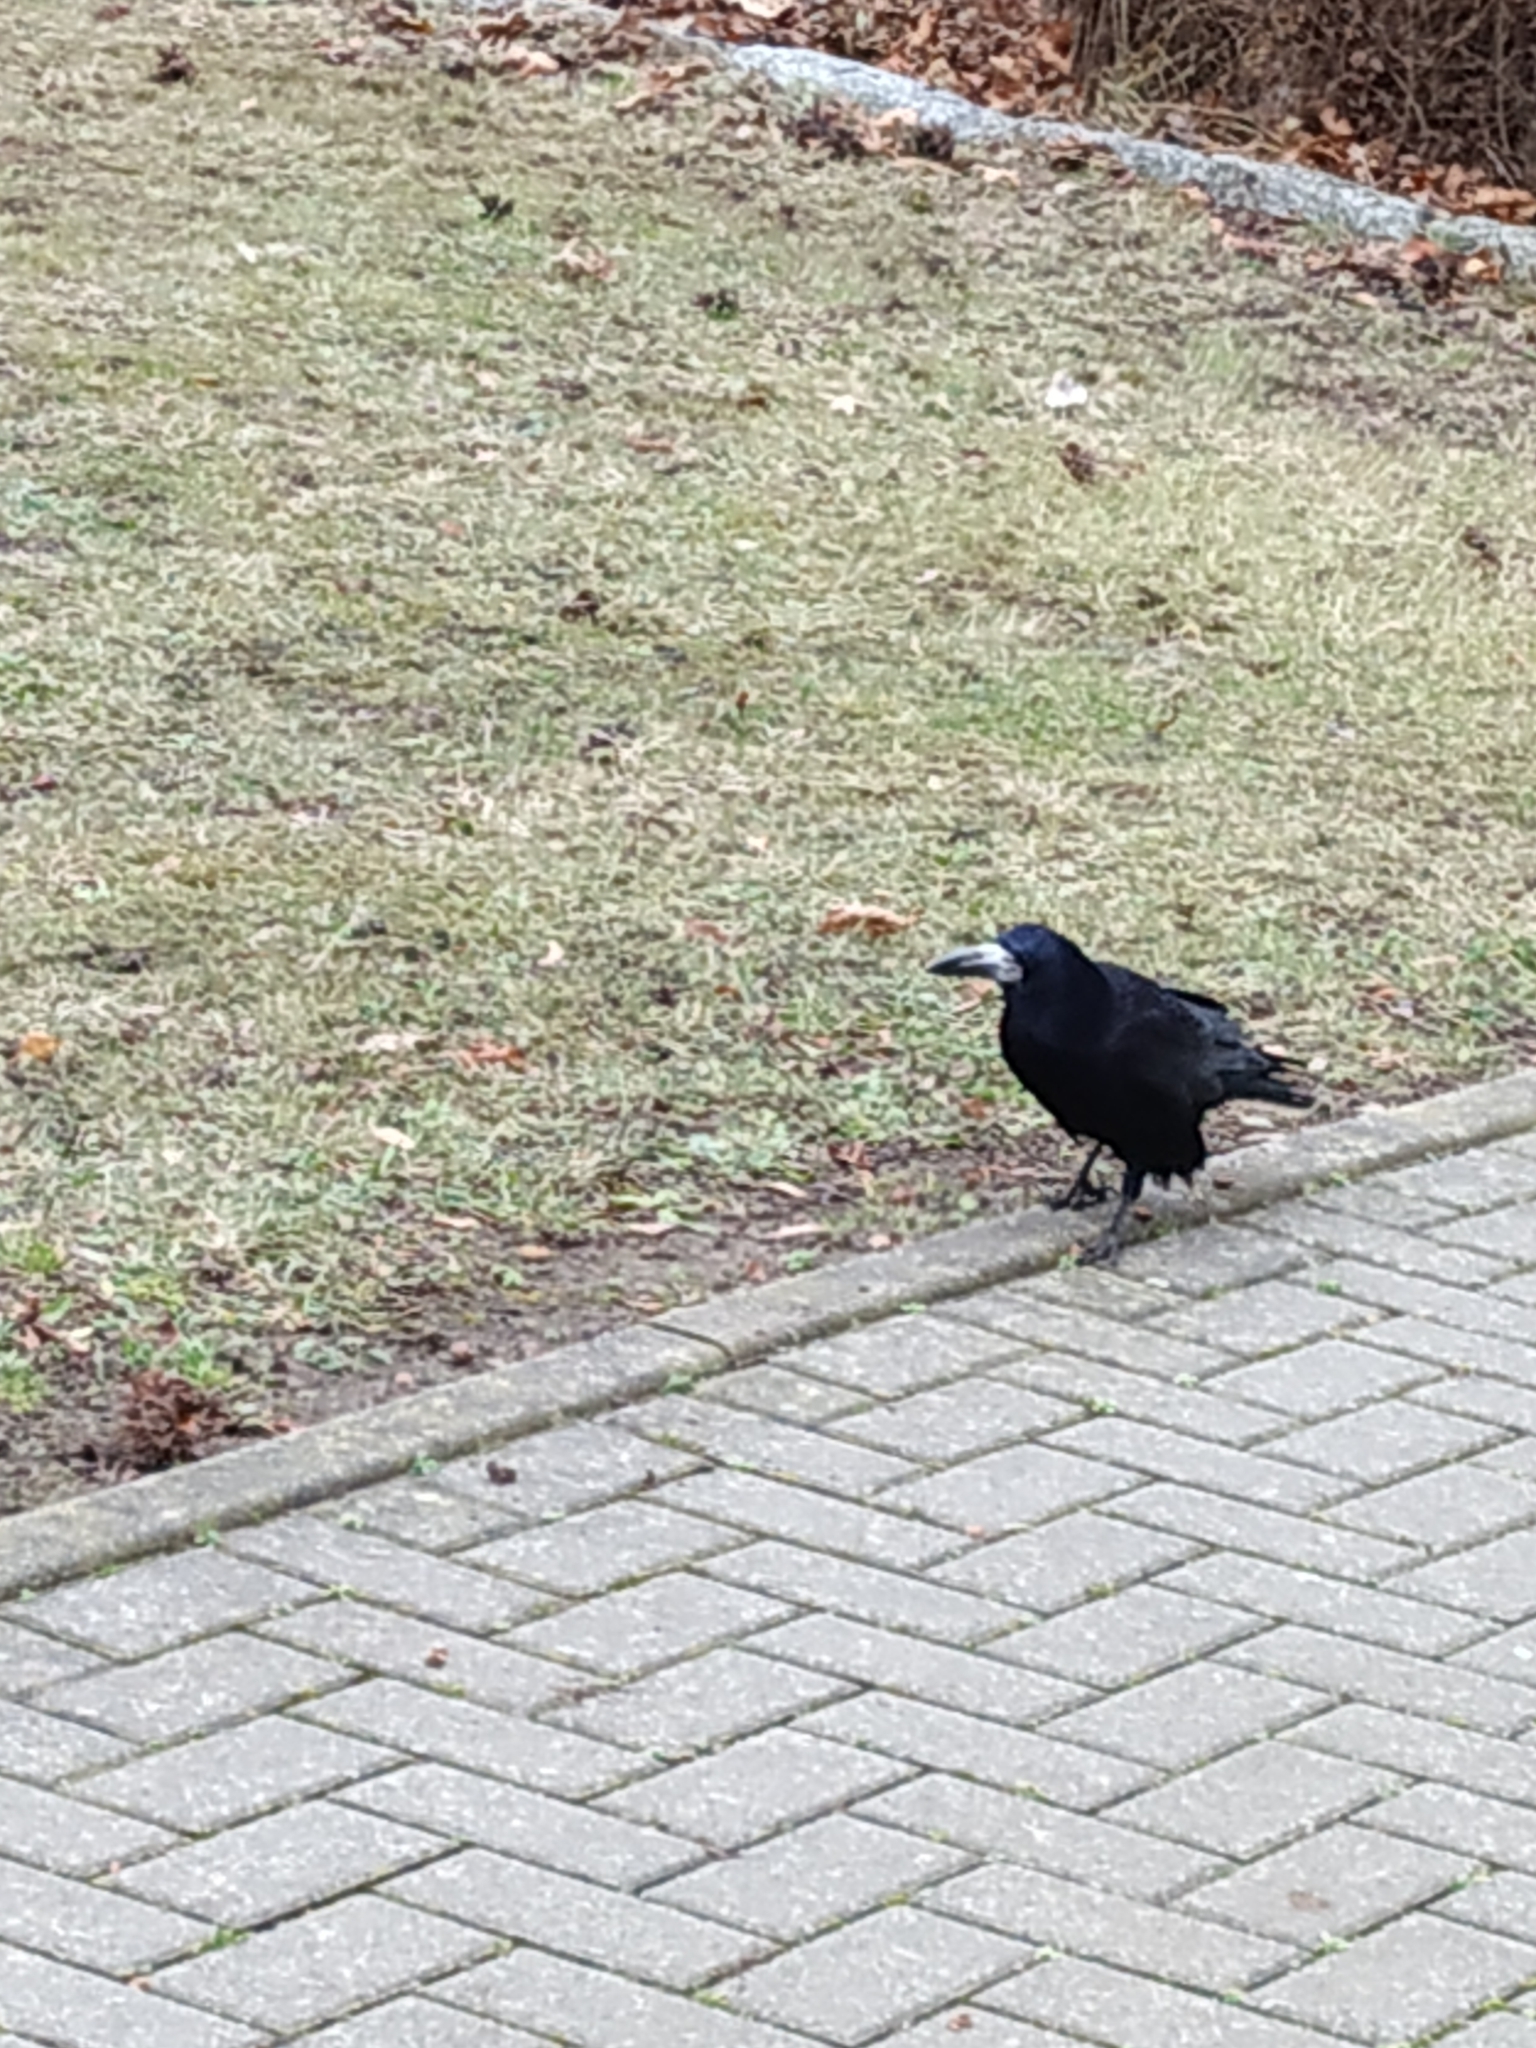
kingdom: Animalia
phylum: Chordata
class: Aves
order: Passeriformes
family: Corvidae
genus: Corvus
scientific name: Corvus frugilegus
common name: Rook
